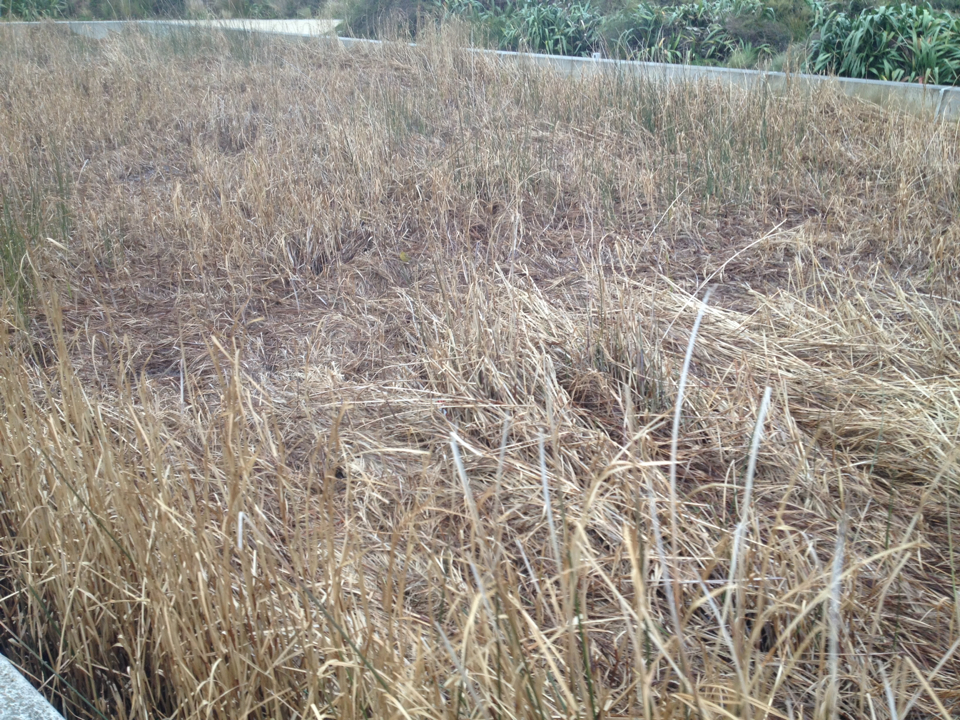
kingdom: Plantae
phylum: Tracheophyta
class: Liliopsida
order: Poales
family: Poaceae
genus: Chloris
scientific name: Chloris chloris
